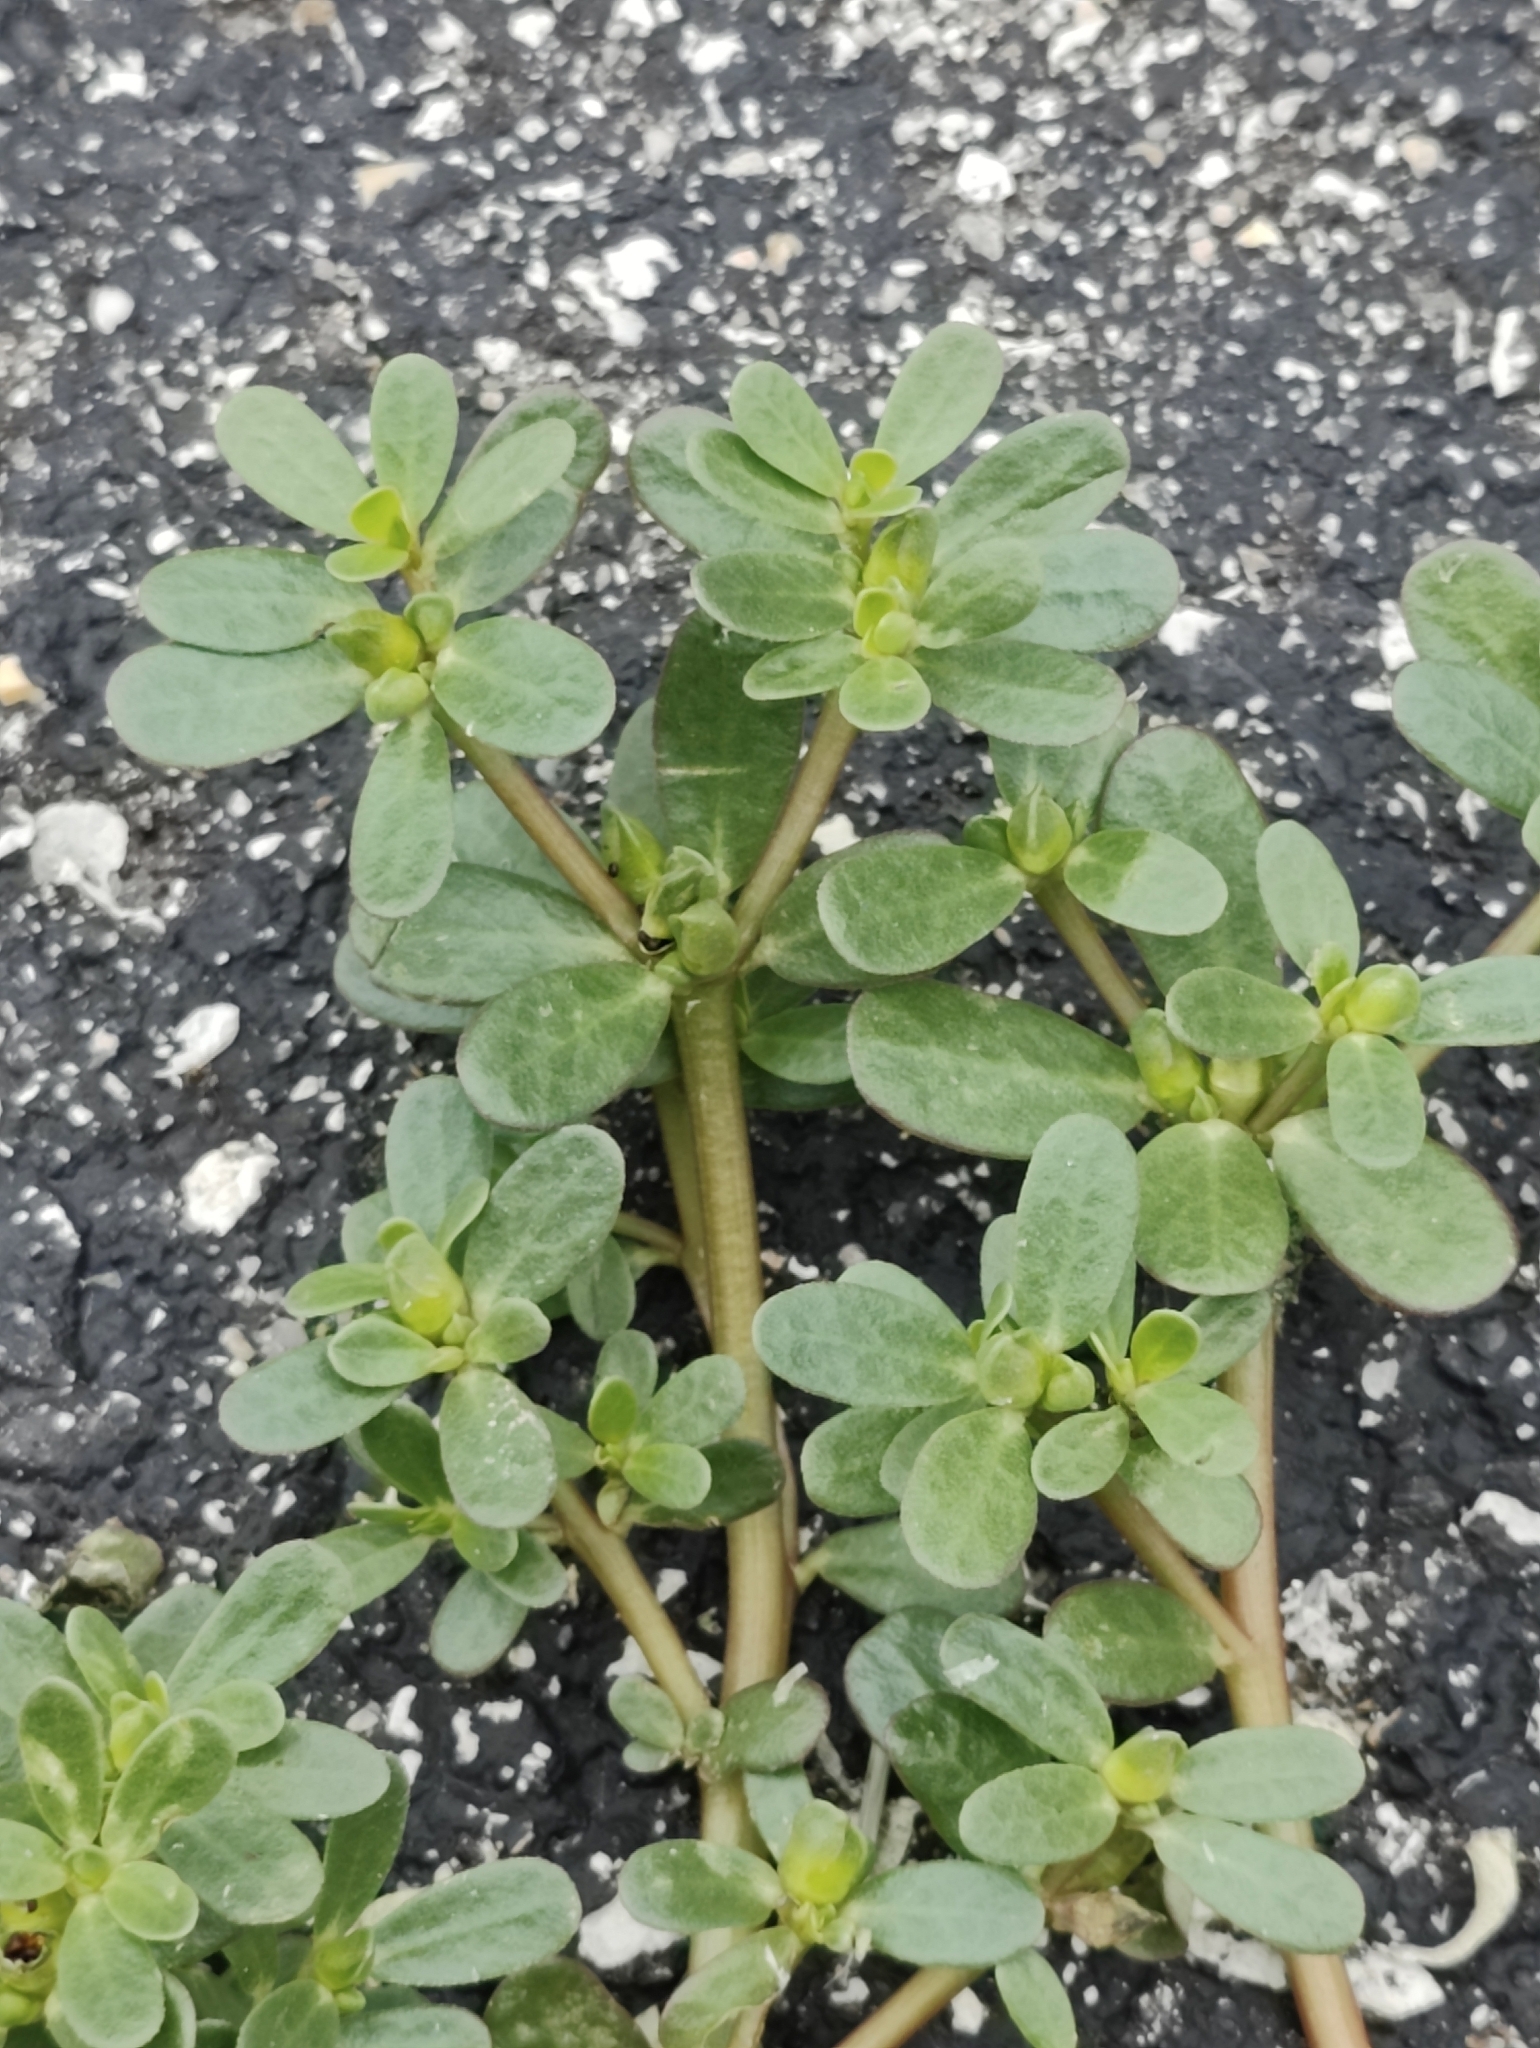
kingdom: Plantae
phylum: Tracheophyta
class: Magnoliopsida
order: Caryophyllales
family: Portulacaceae
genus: Portulaca
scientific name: Portulaca oleracea
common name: Common purslane
